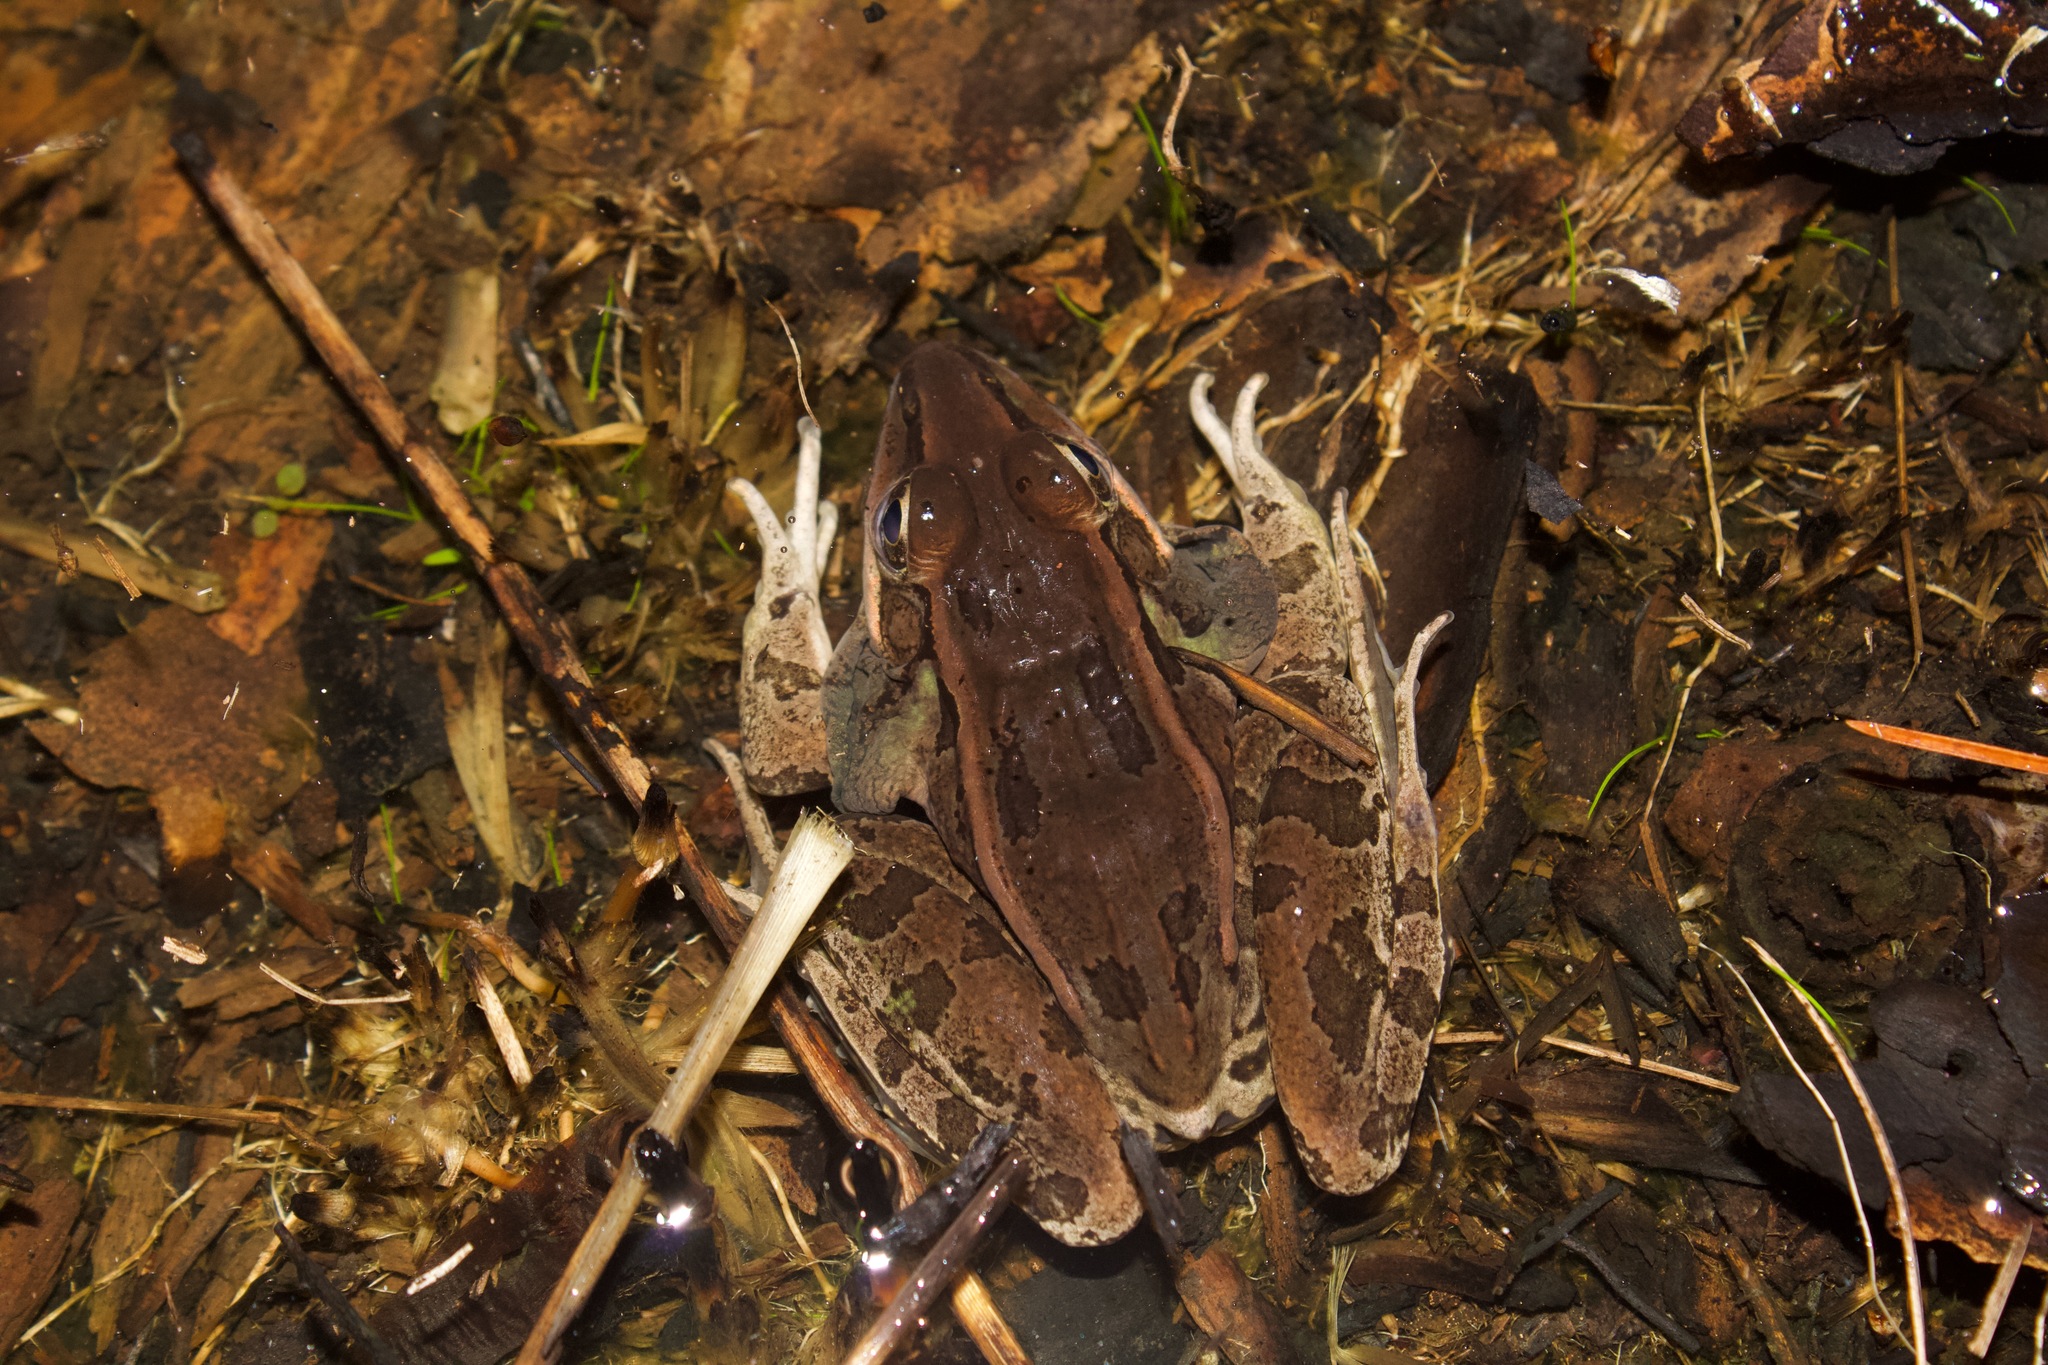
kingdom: Animalia
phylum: Chordata
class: Amphibia
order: Anura
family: Ranidae
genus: Lithobates
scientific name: Lithobates sphenocephalus
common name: Southern leopard frog
